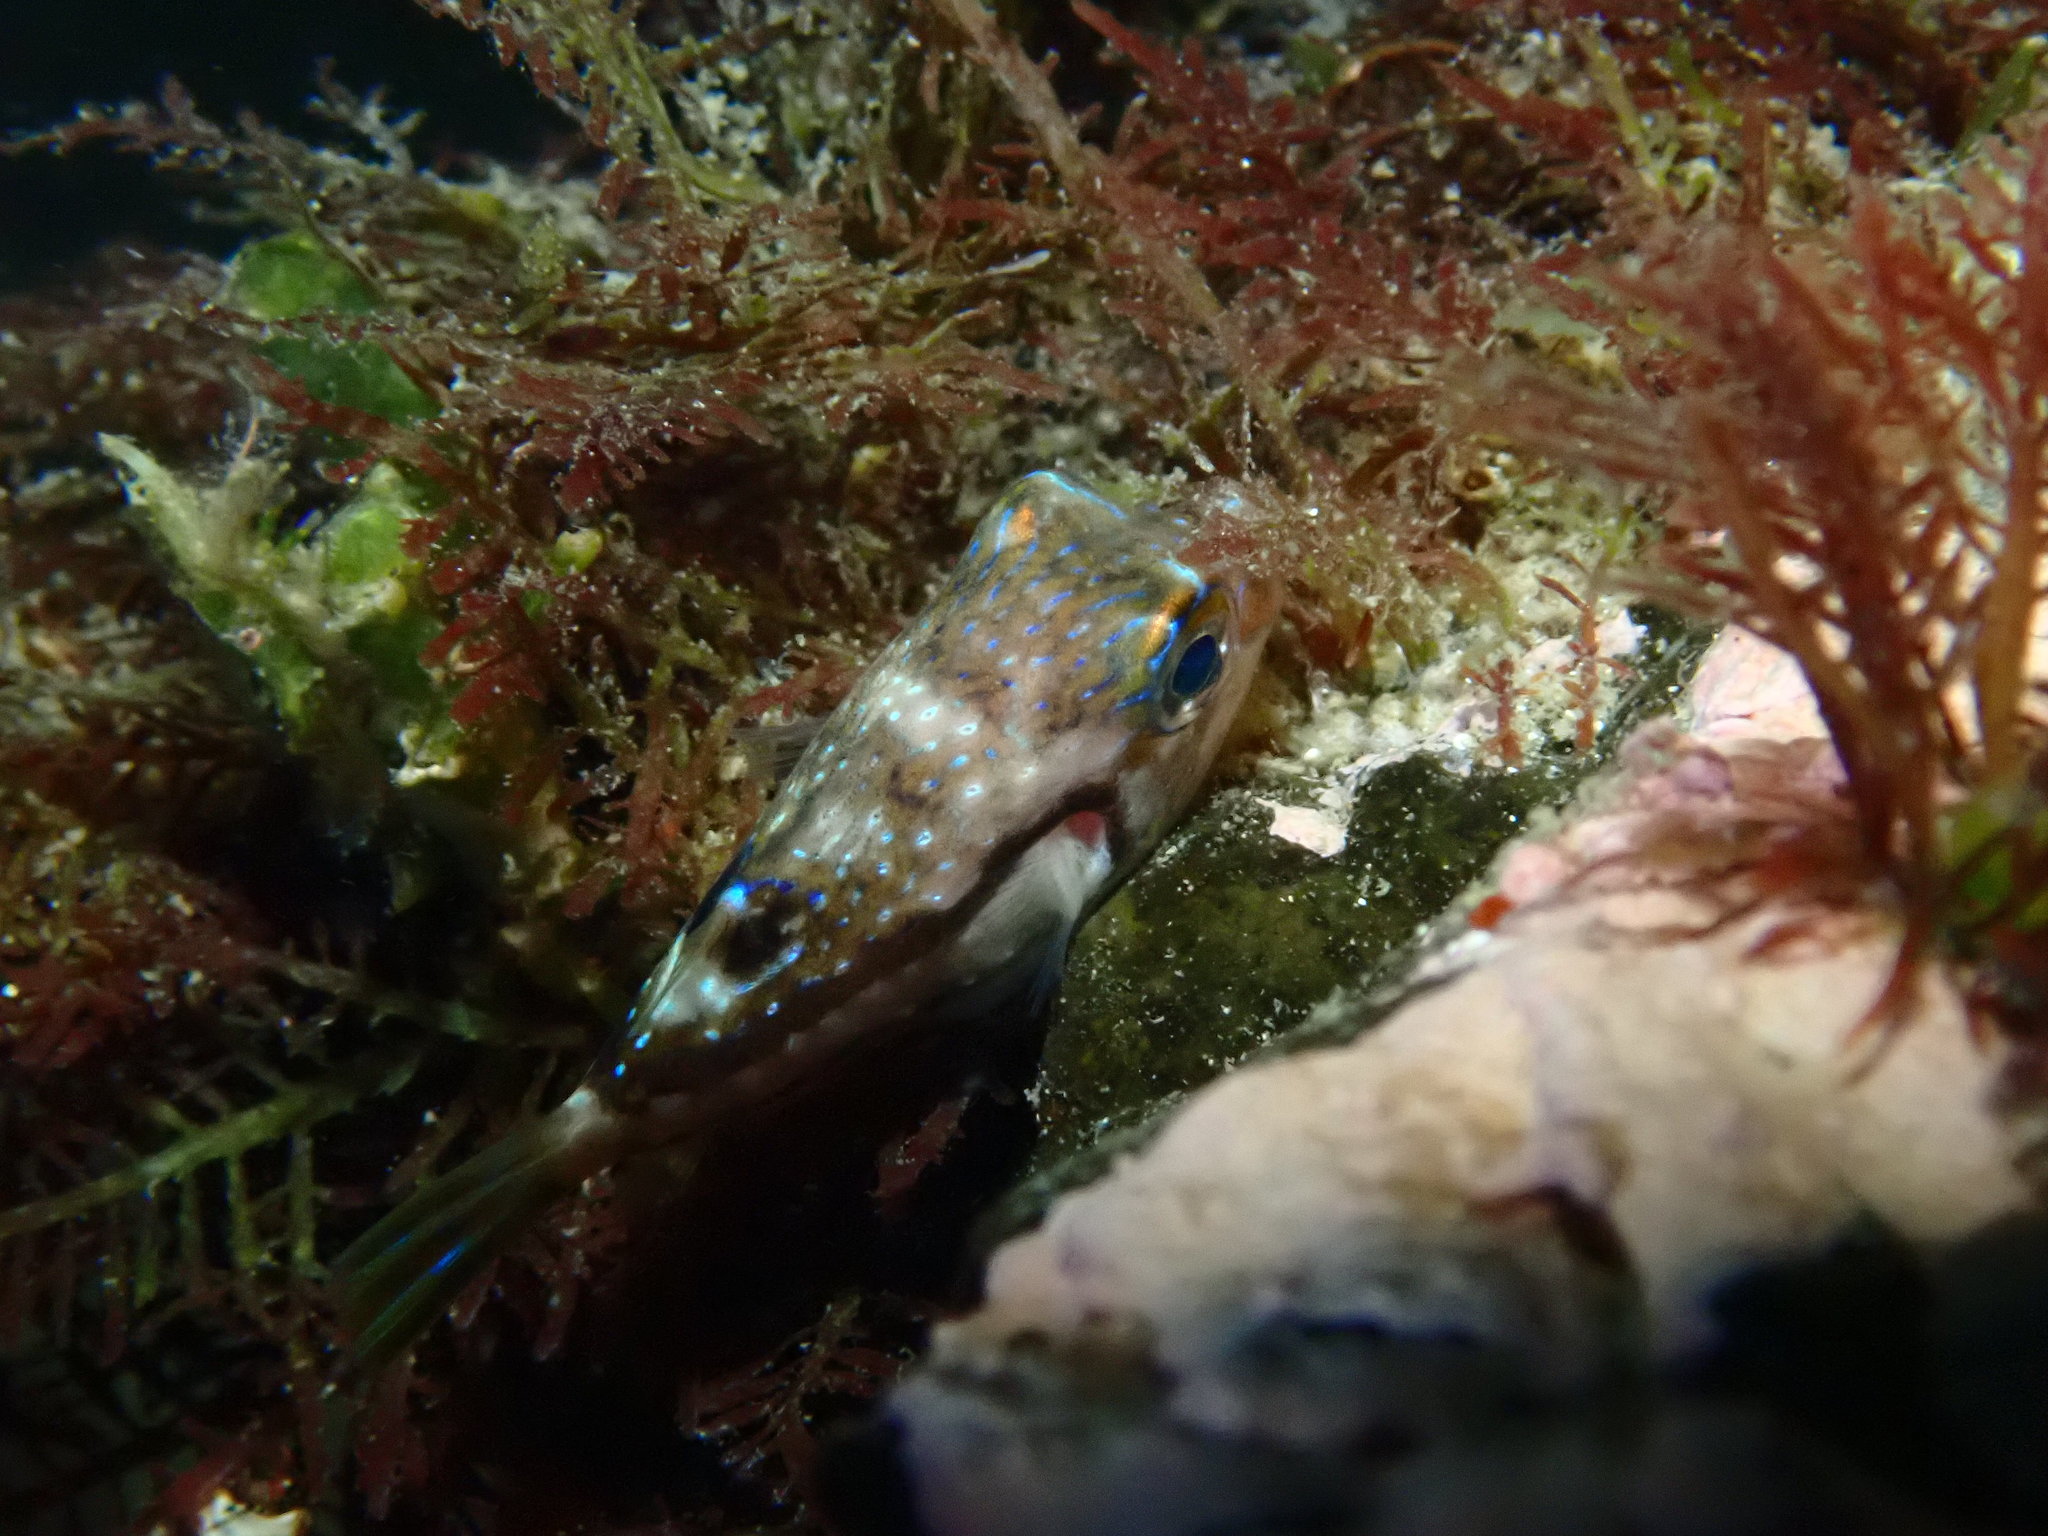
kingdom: Animalia
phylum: Chordata
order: Tetraodontiformes
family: Tetraodontidae
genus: Canthigaster
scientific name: Canthigaster rivulata
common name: Brown-lined puffer
